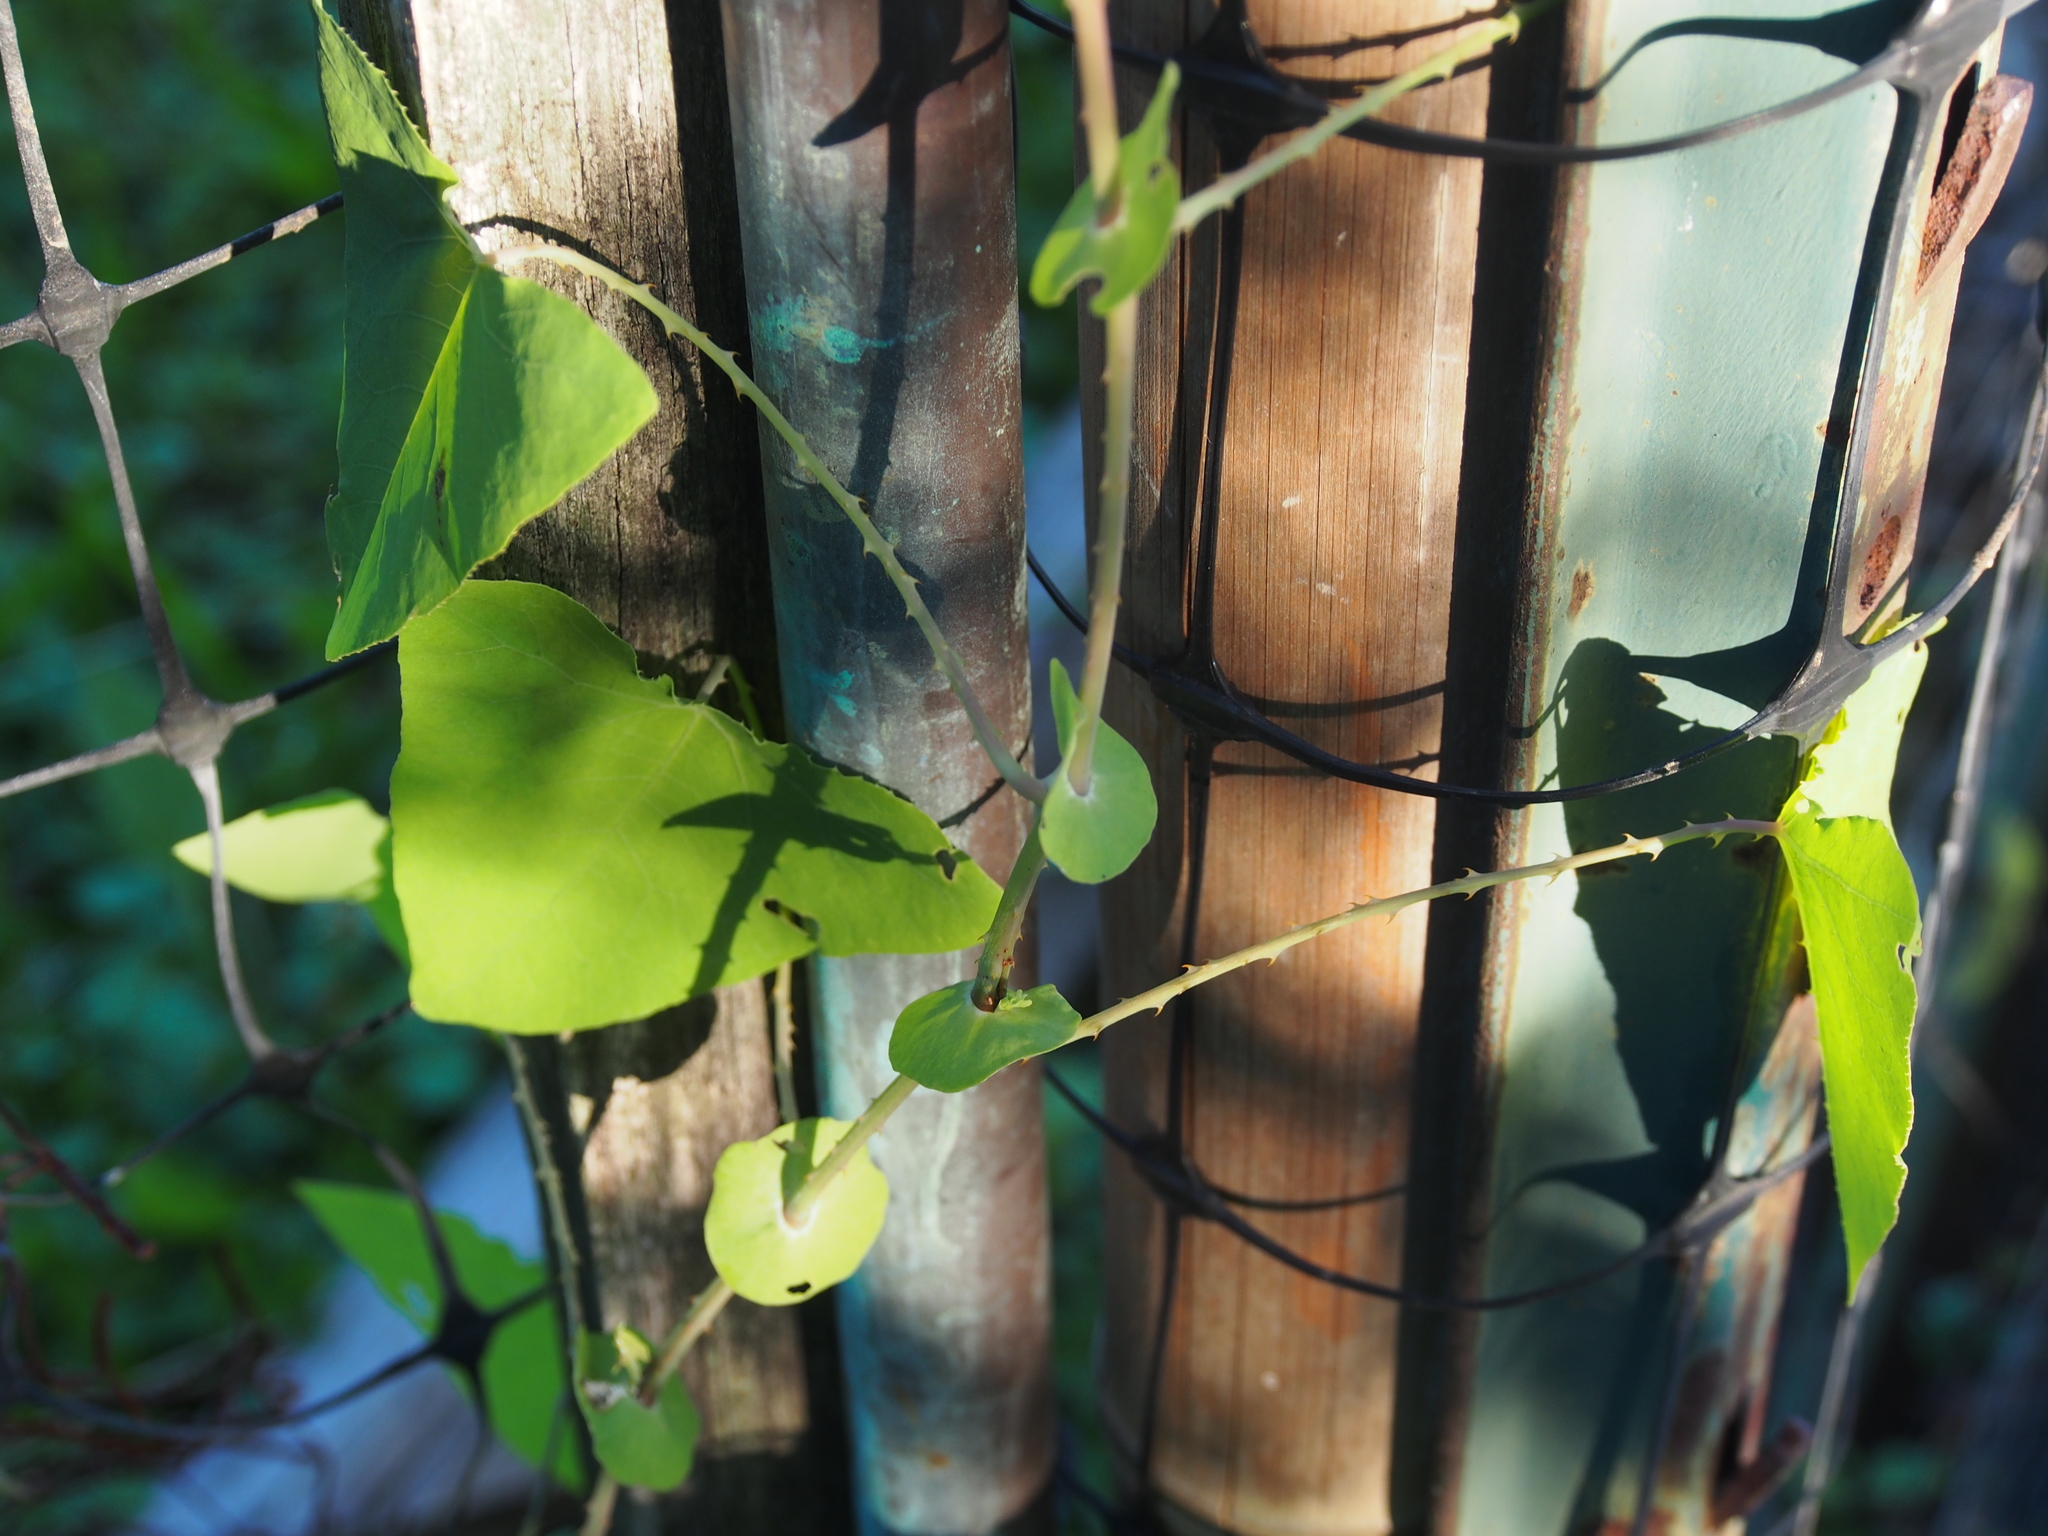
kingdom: Plantae
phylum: Tracheophyta
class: Magnoliopsida
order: Caryophyllales
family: Polygonaceae
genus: Persicaria
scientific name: Persicaria perfoliata
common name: Asiatic tearthumb
